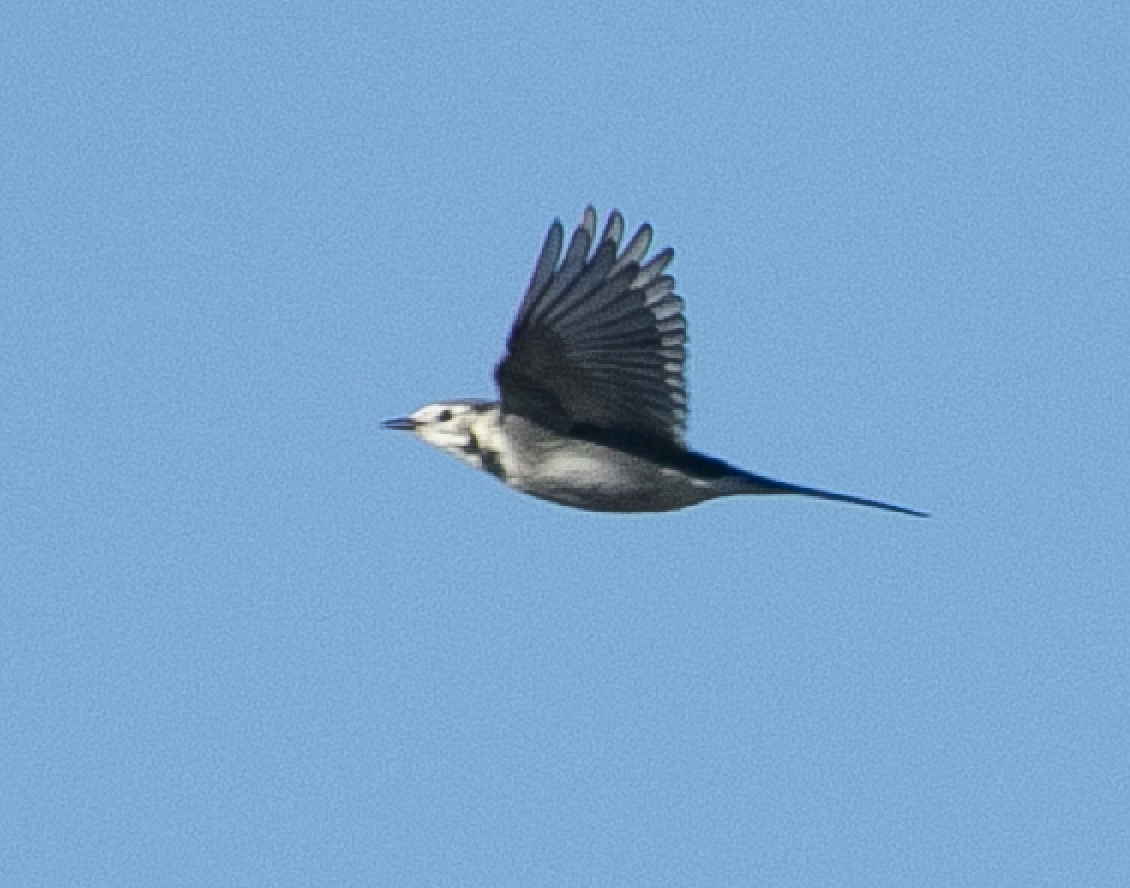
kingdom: Animalia
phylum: Chordata
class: Aves
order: Passeriformes
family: Motacillidae
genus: Motacilla
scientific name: Motacilla alba
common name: White wagtail
